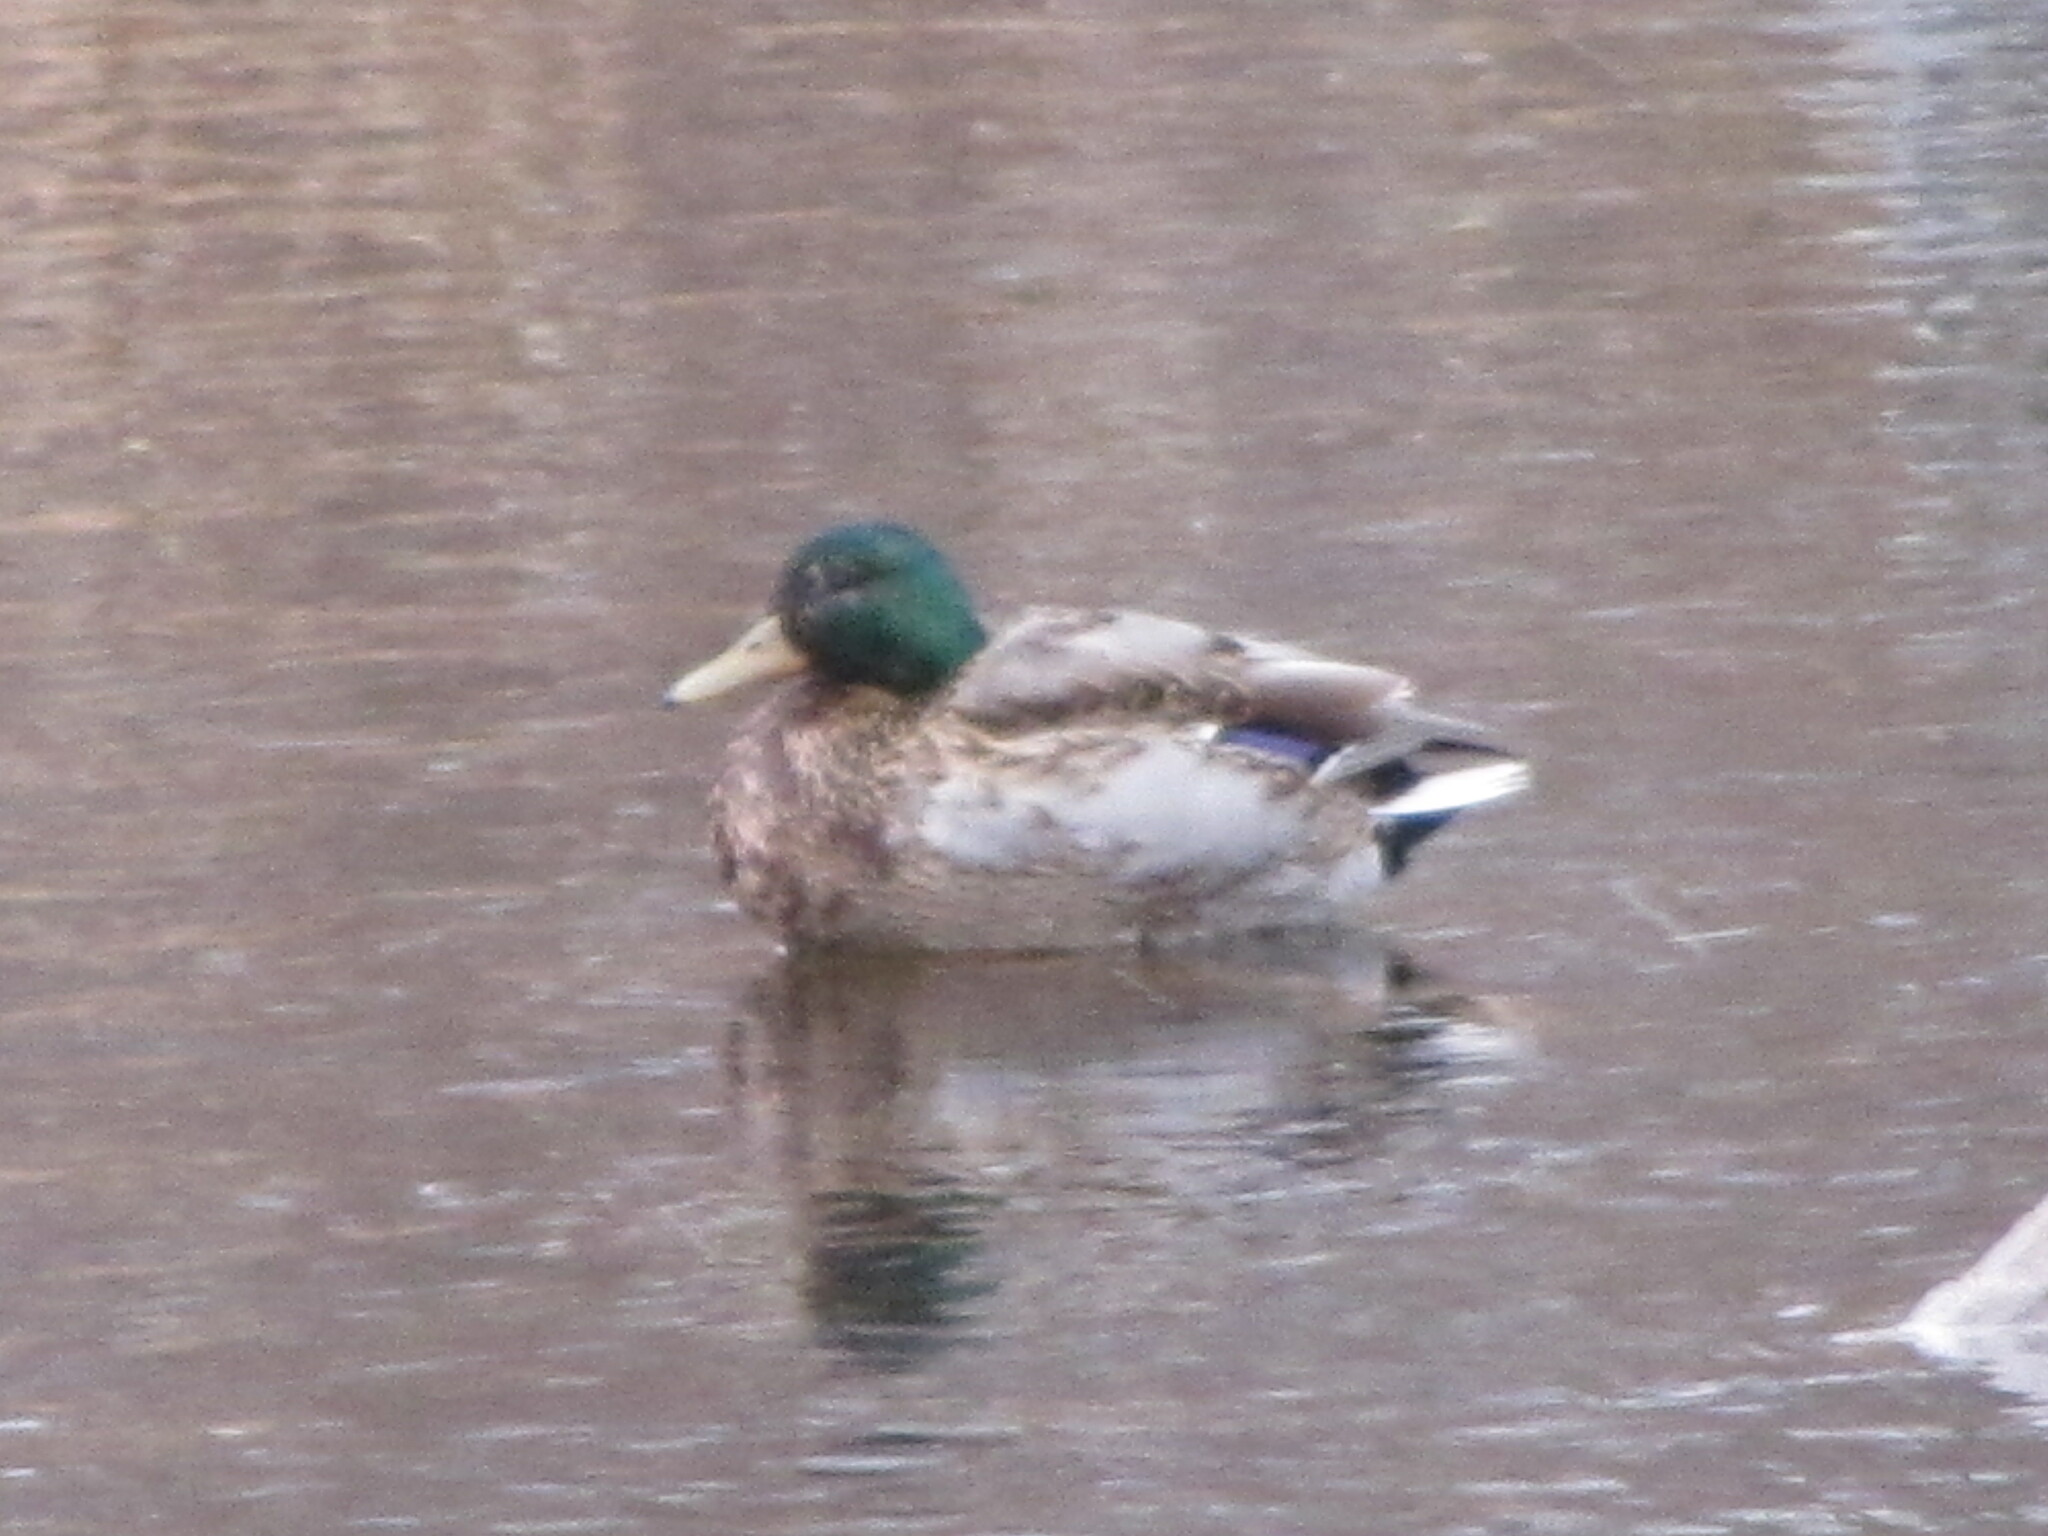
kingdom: Animalia
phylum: Chordata
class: Aves
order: Anseriformes
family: Anatidae
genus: Anas
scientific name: Anas platyrhynchos
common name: Mallard
